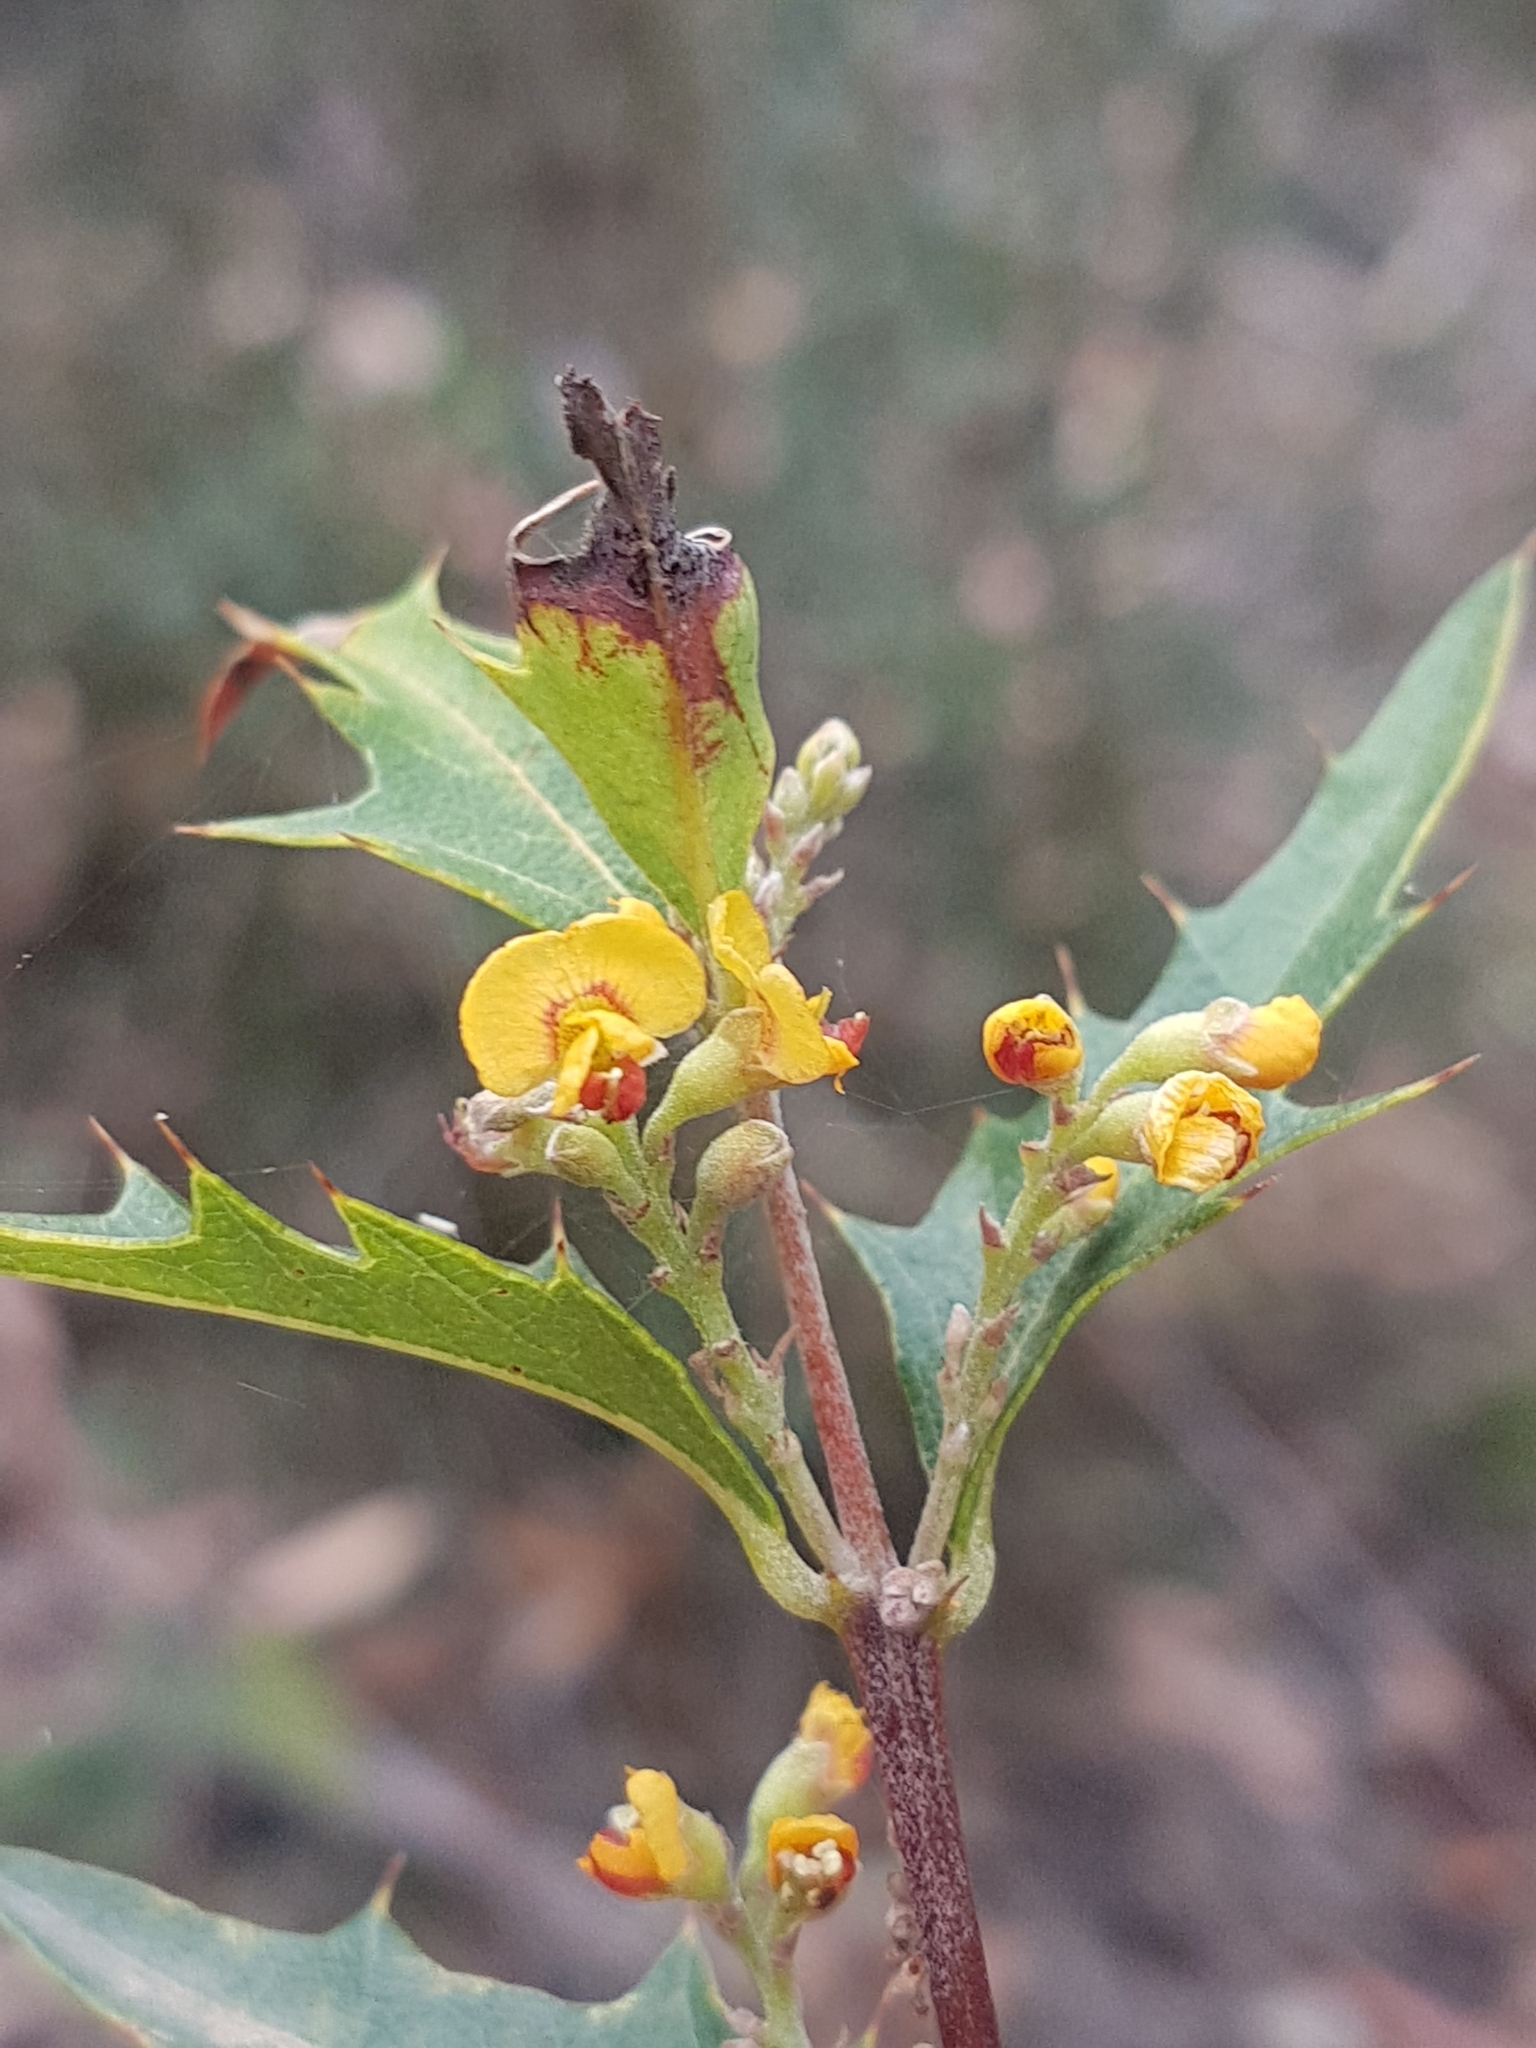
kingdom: Plantae
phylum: Tracheophyta
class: Magnoliopsida
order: Fabales
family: Fabaceae
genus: Podolobium
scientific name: Podolobium ilicifolium
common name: Native holly
